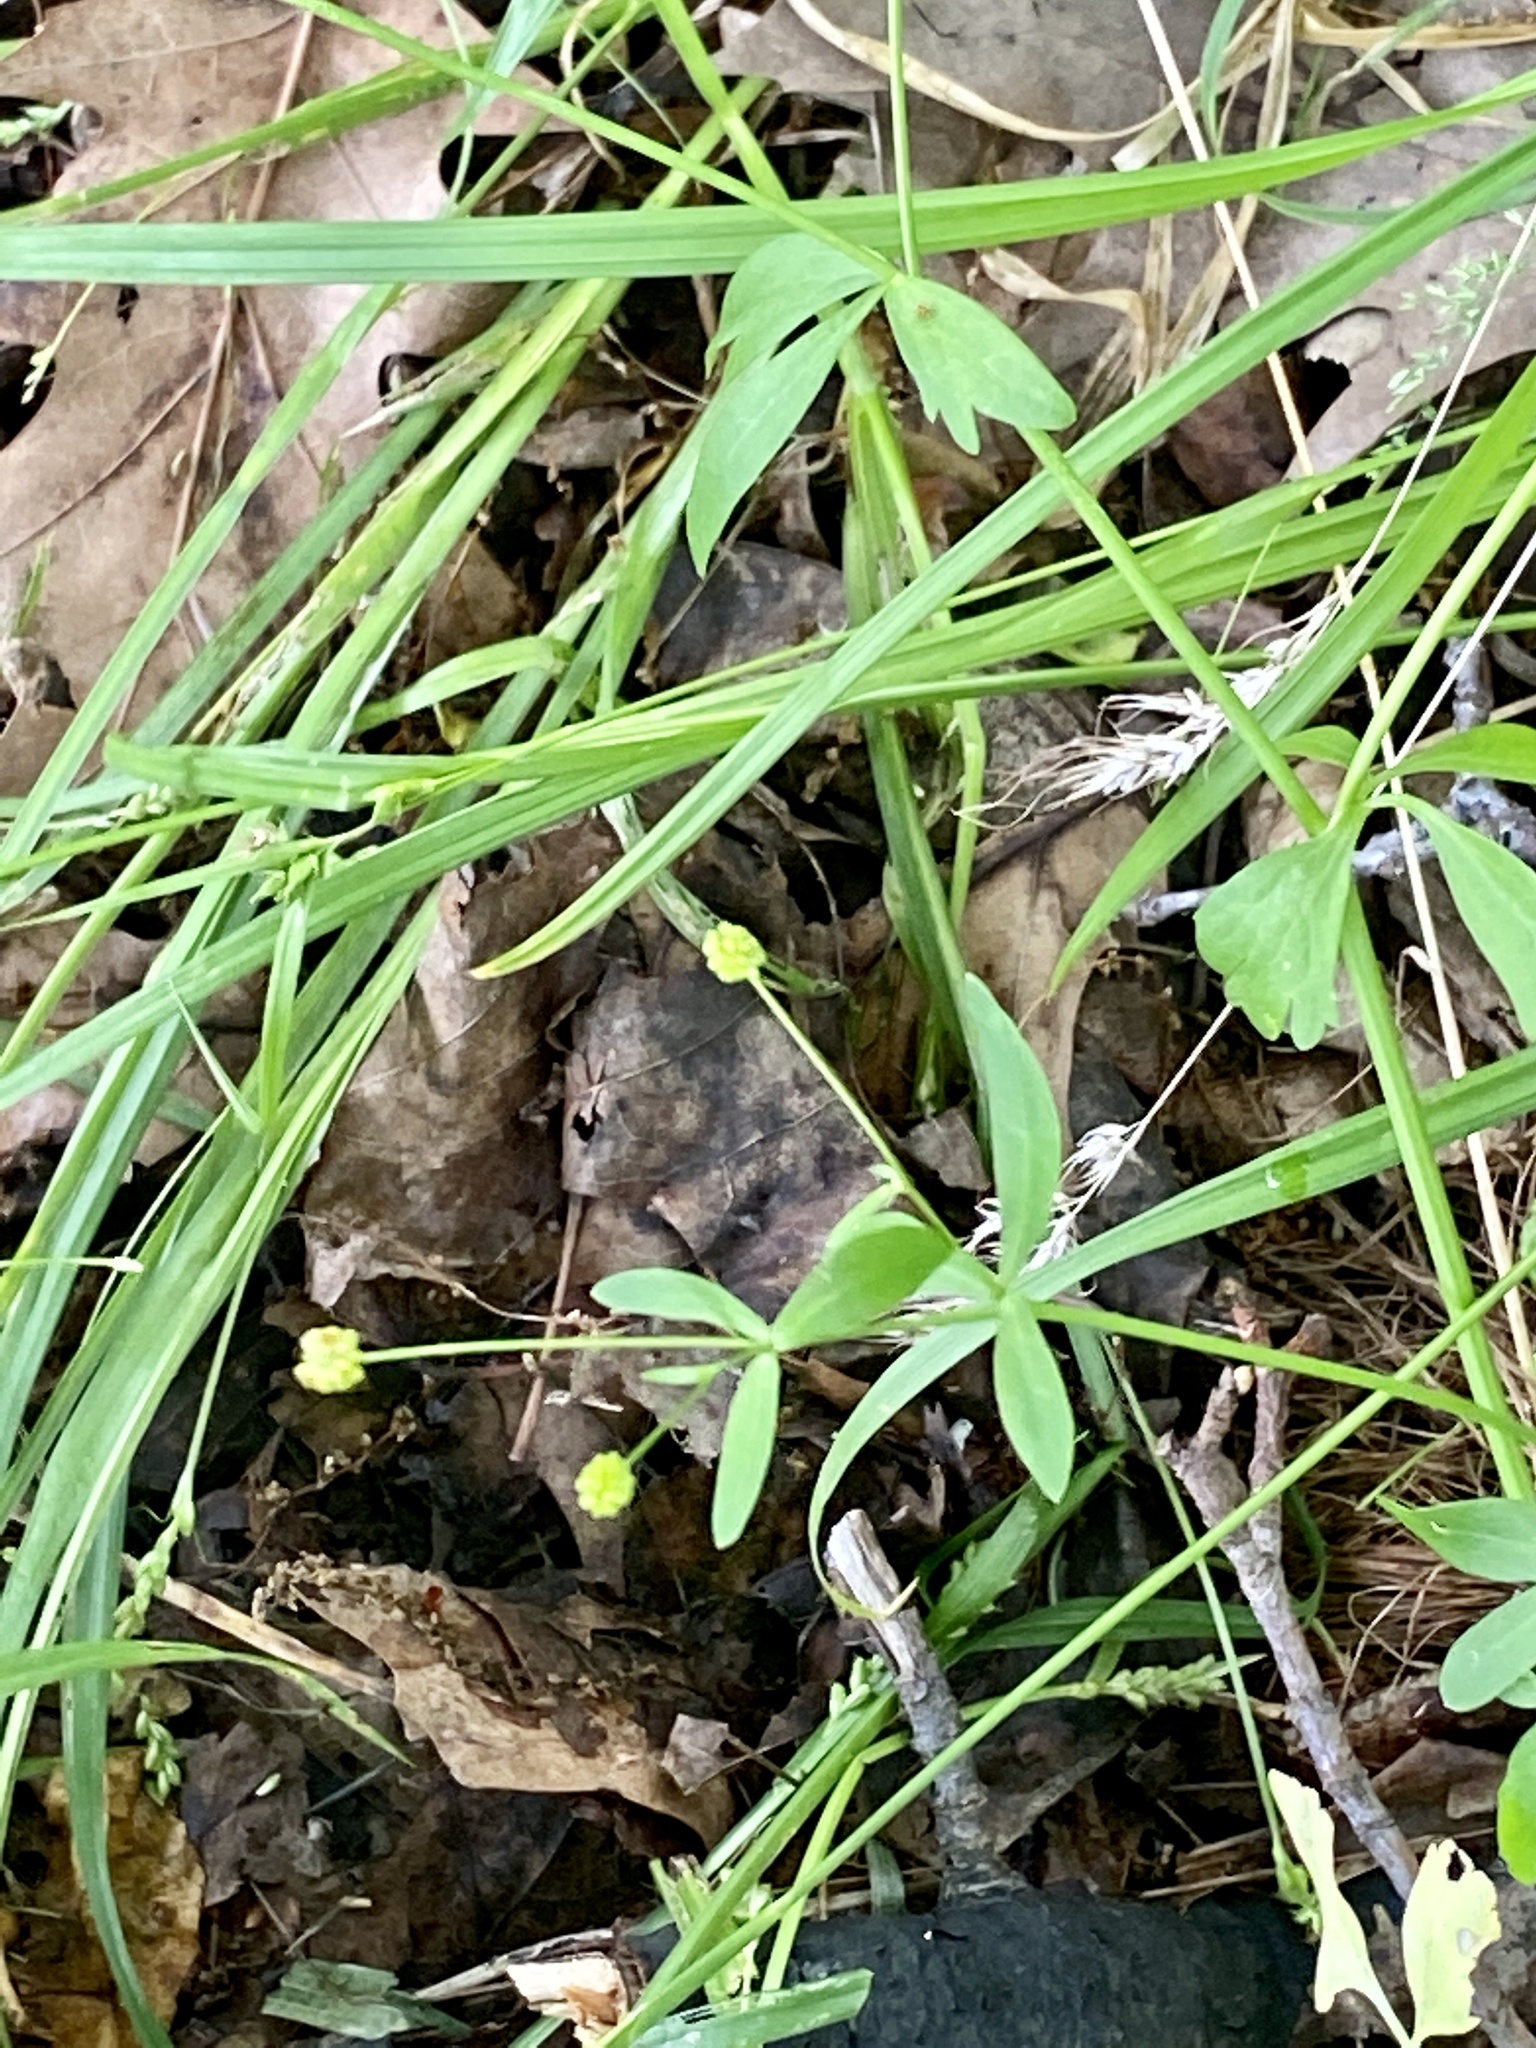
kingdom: Plantae
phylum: Tracheophyta
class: Magnoliopsida
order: Ranunculales
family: Ranunculaceae
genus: Ranunculus
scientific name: Ranunculus abortivus
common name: Early wood buttercup
